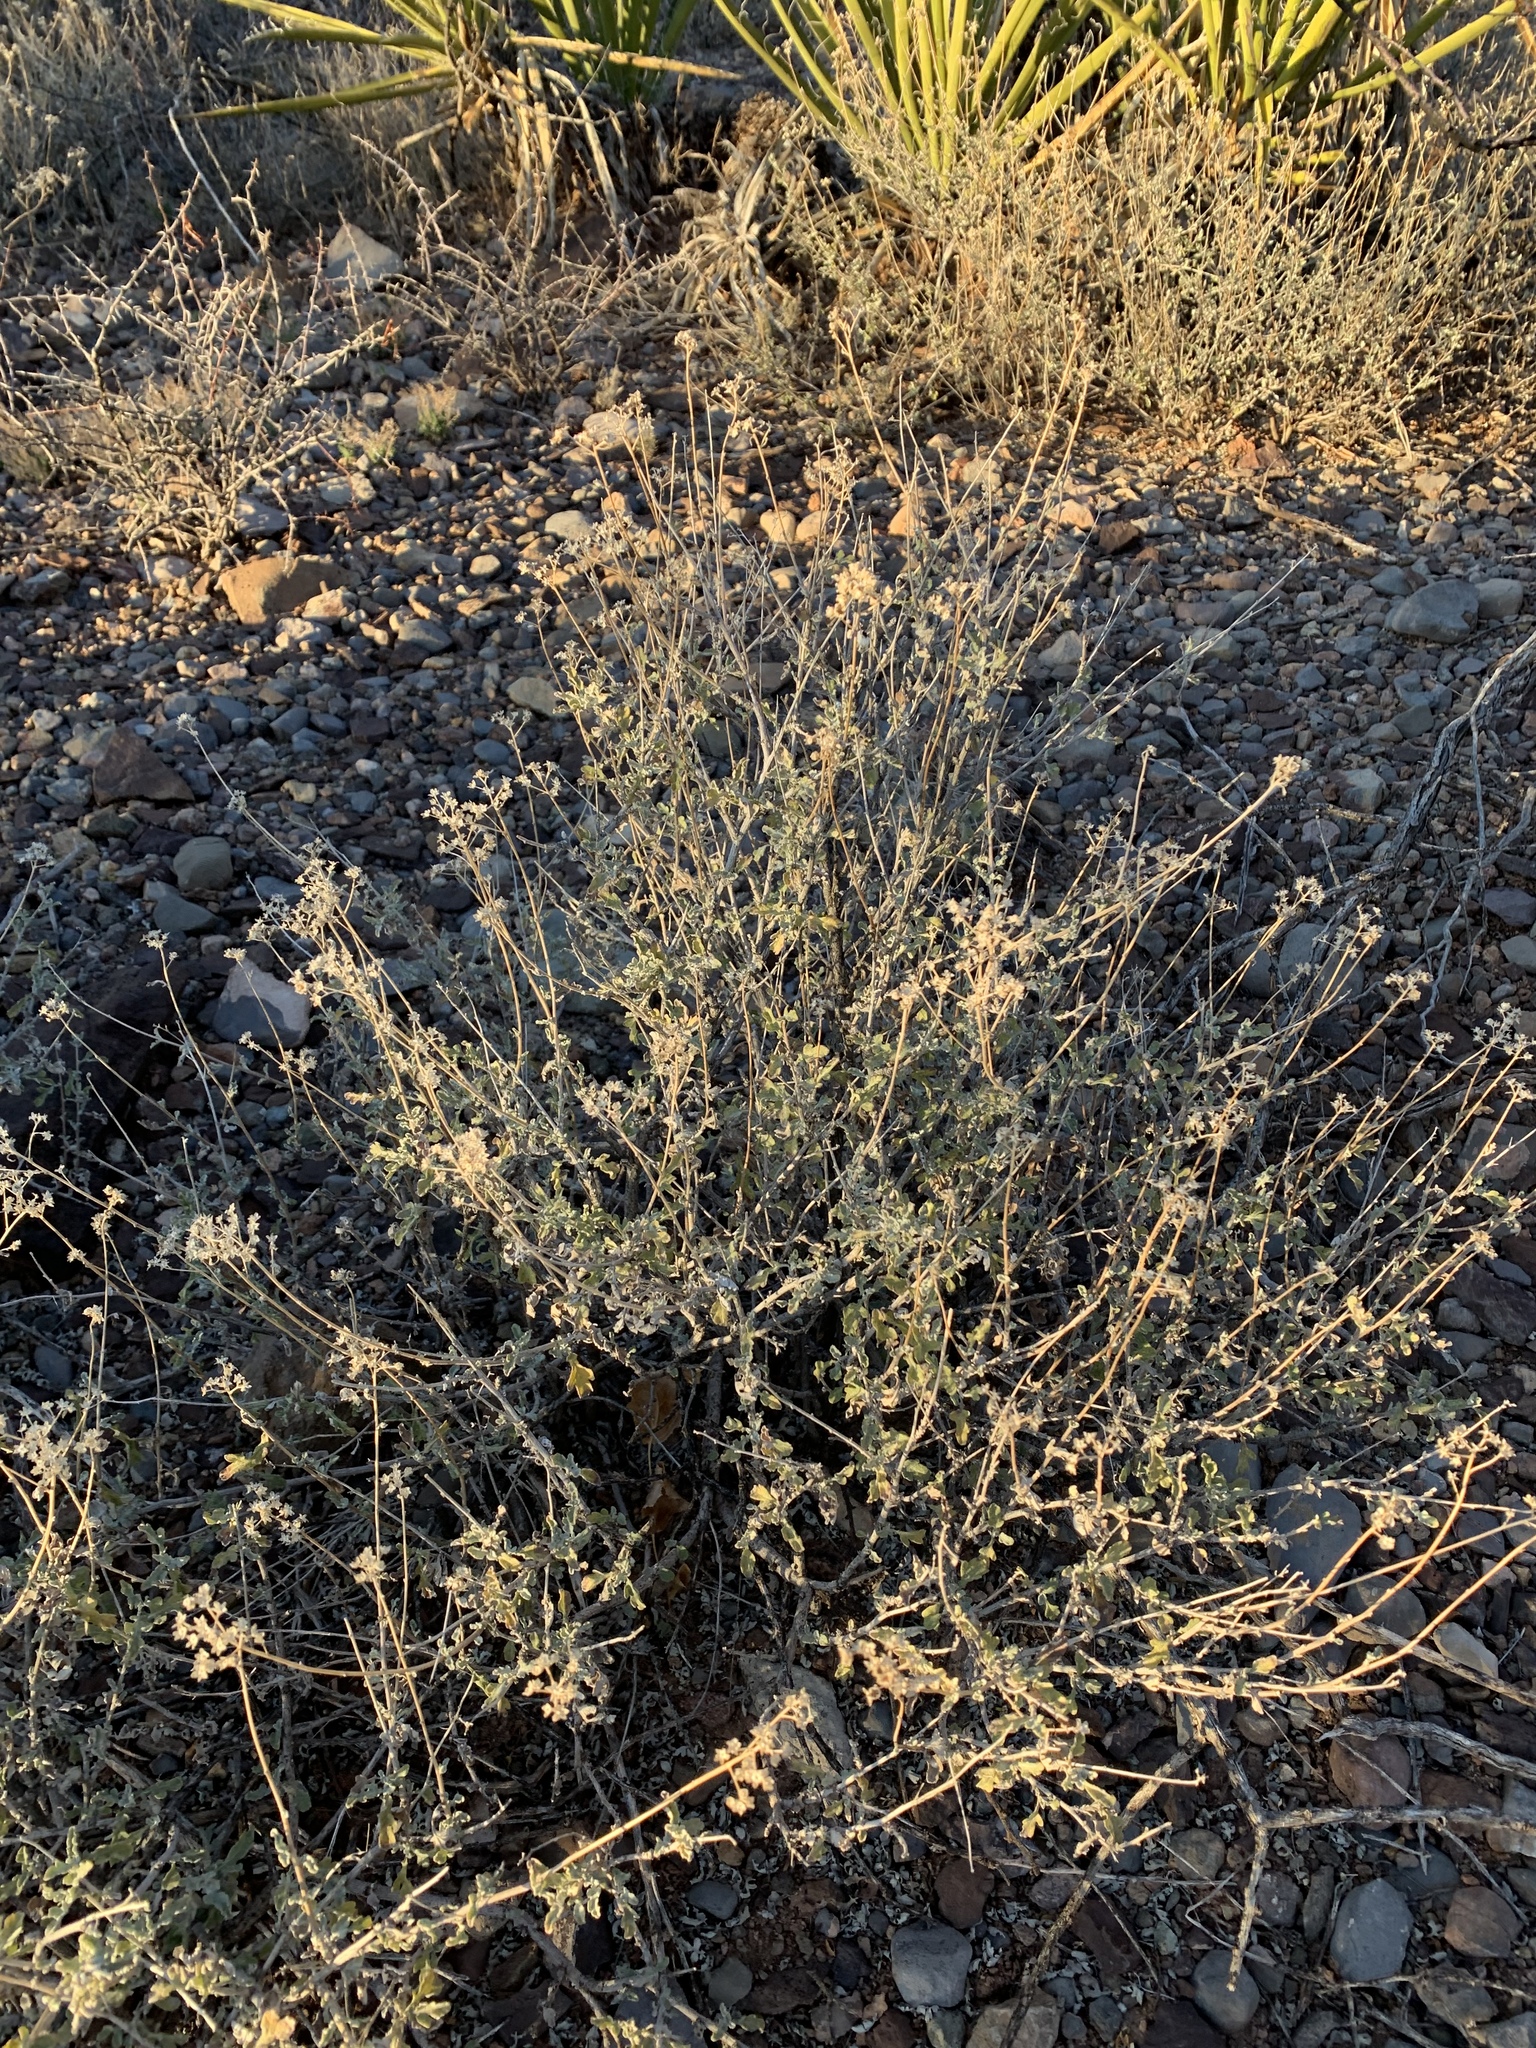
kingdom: Plantae
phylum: Tracheophyta
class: Magnoliopsida
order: Asterales
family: Asteraceae
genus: Parthenium
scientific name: Parthenium incanum
